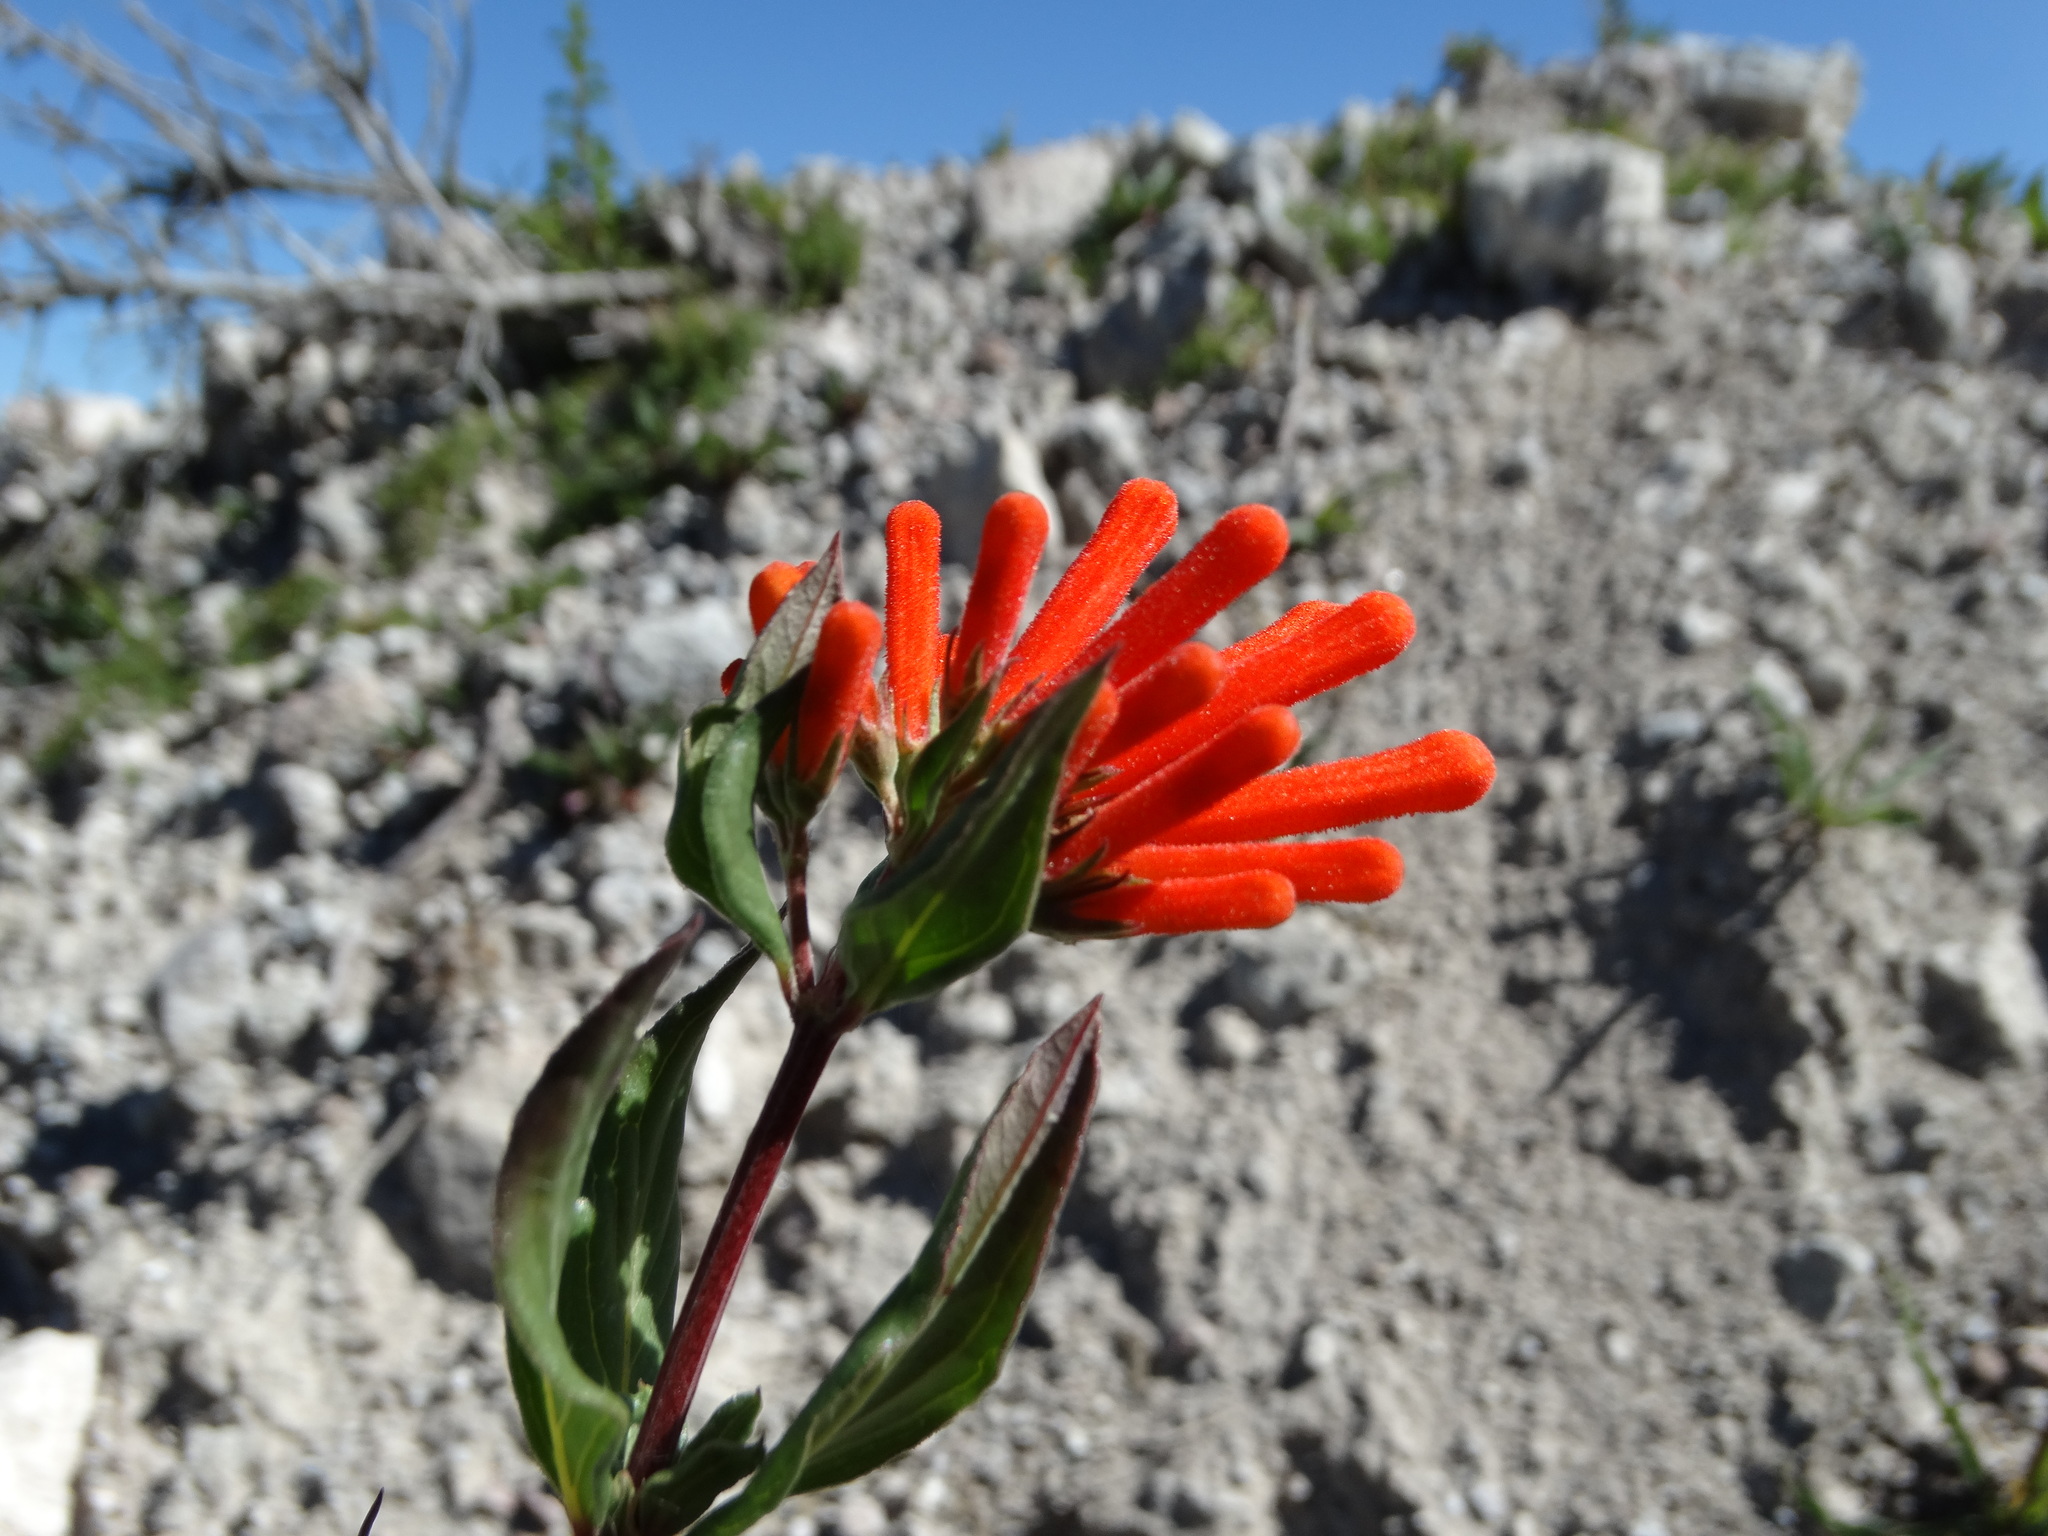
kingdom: Plantae
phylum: Tracheophyta
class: Magnoliopsida
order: Gentianales
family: Rubiaceae
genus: Bouvardia
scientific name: Bouvardia ternifolia
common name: Scarlet bouvardia
